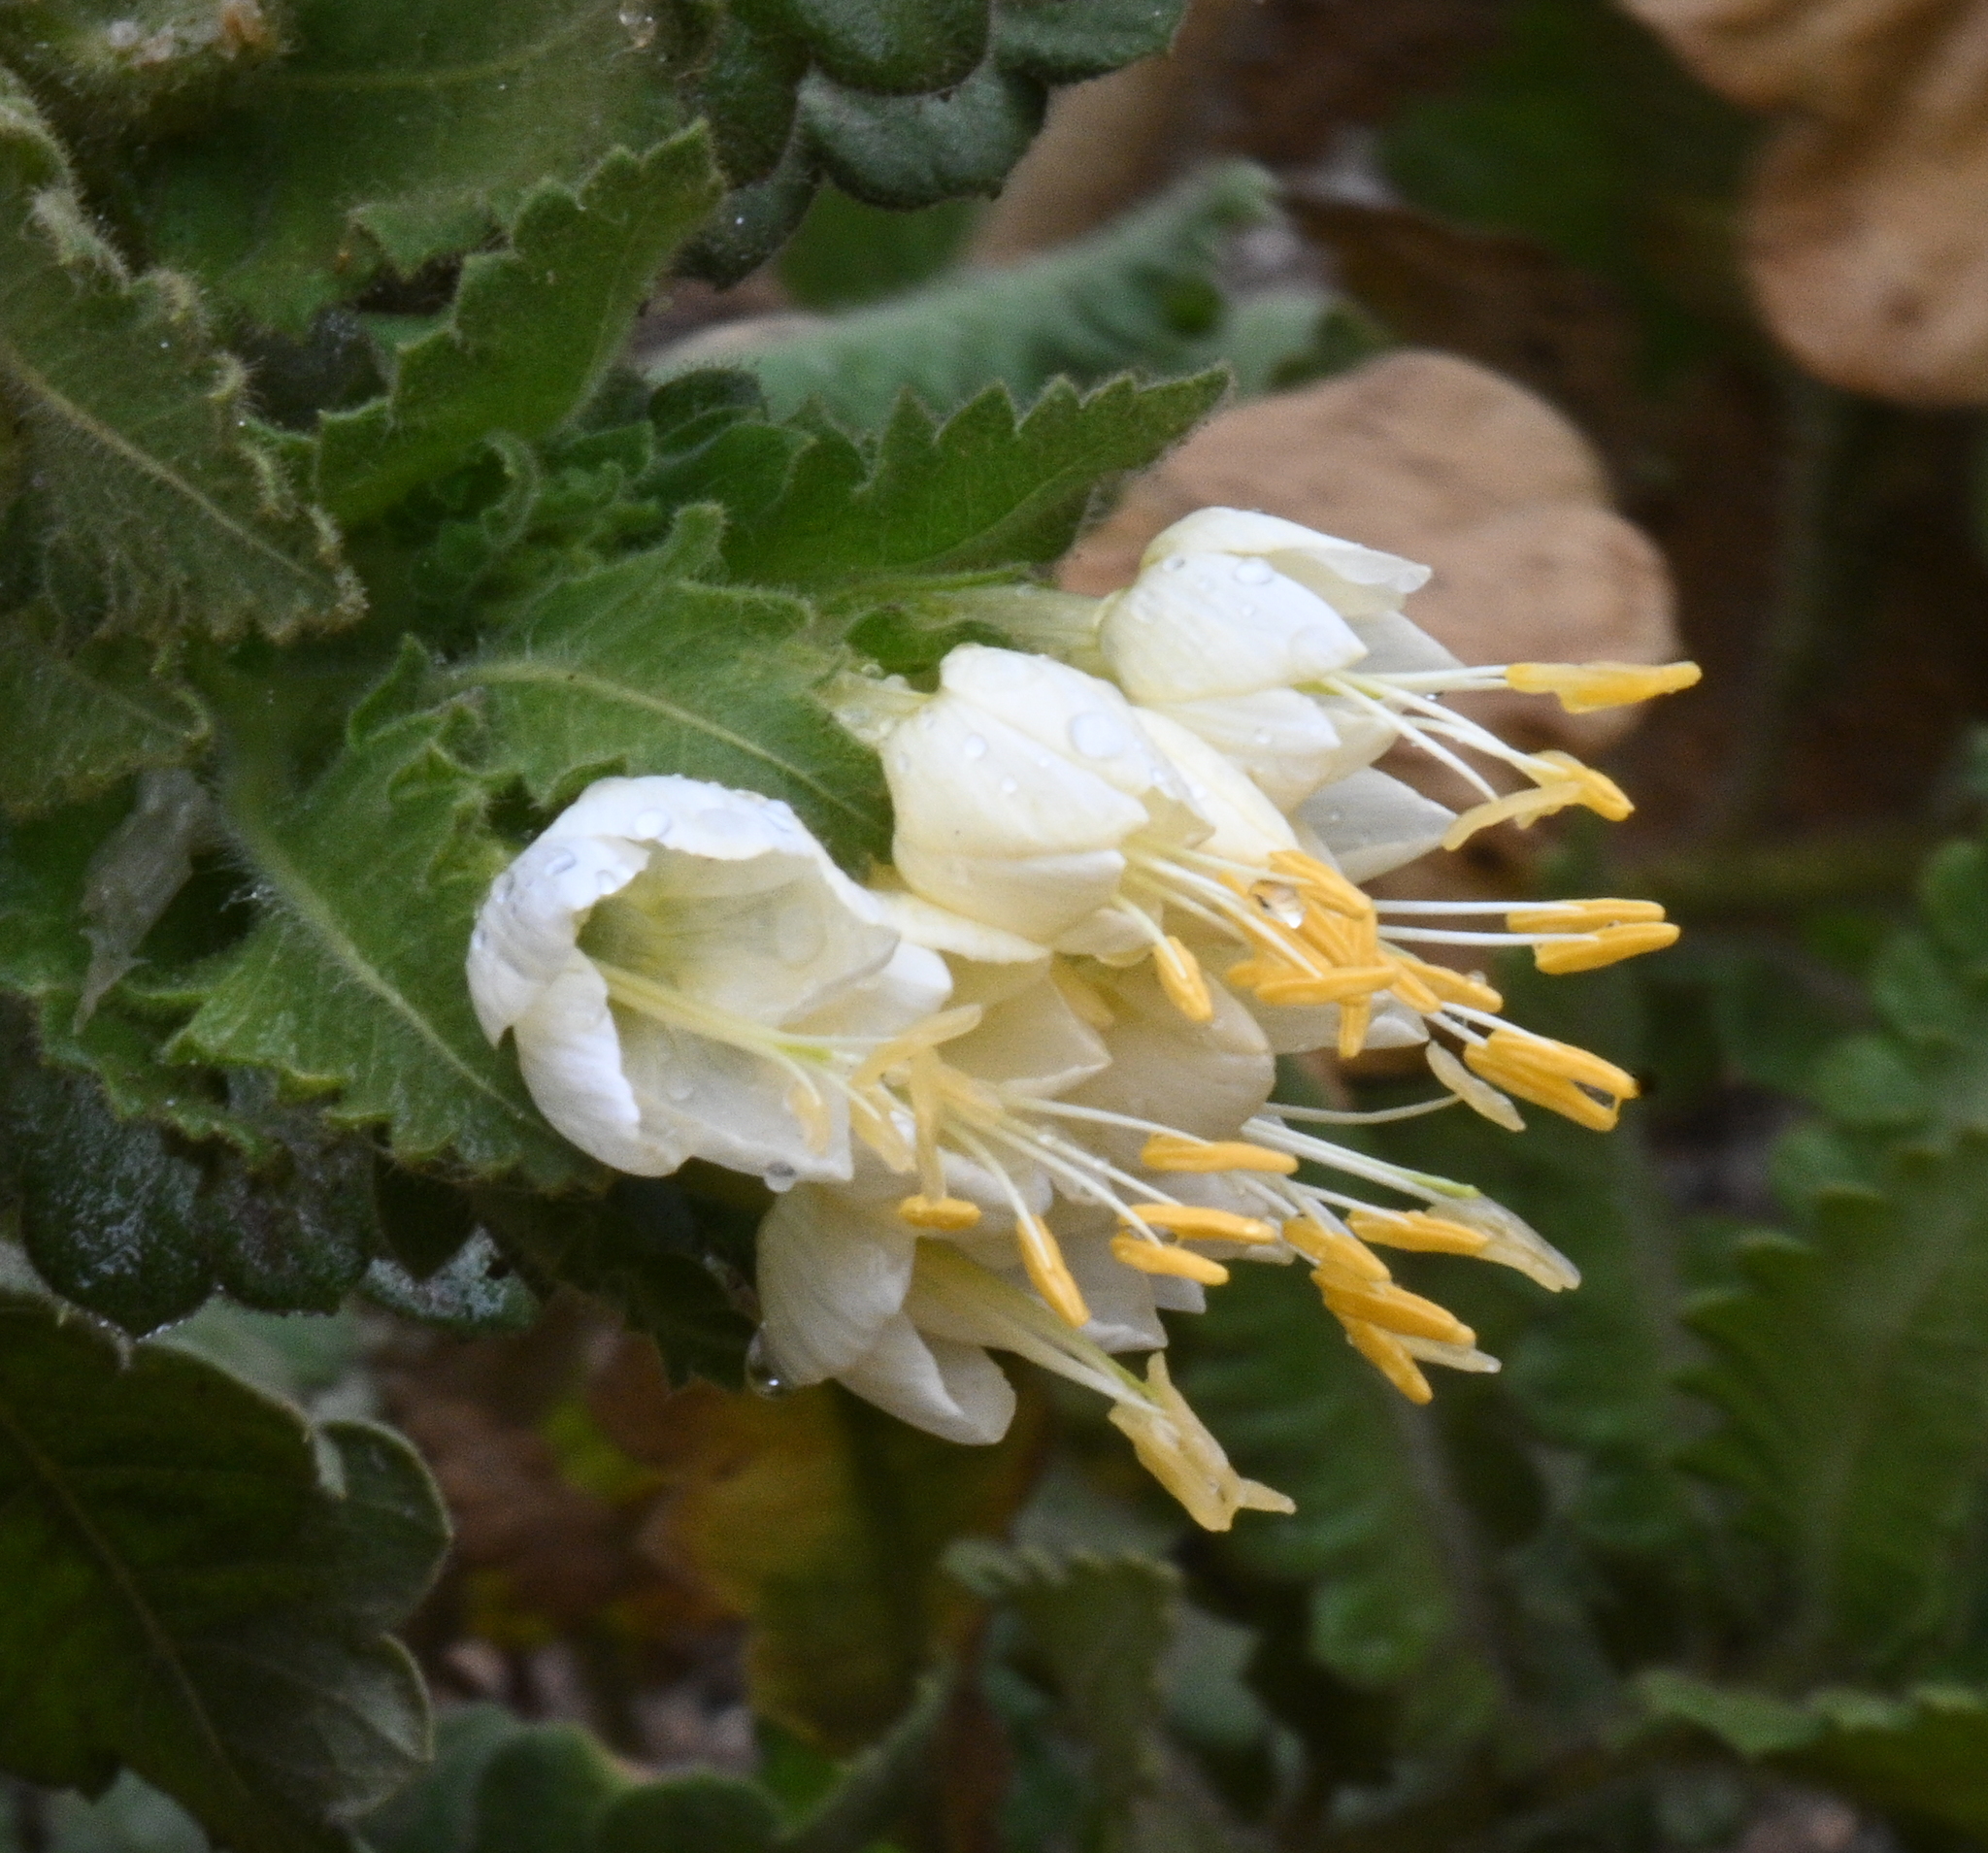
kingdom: Plantae
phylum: Tracheophyta
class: Magnoliopsida
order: Ericales
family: Polemoniaceae
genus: Cantua
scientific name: Cantua quercifolia
